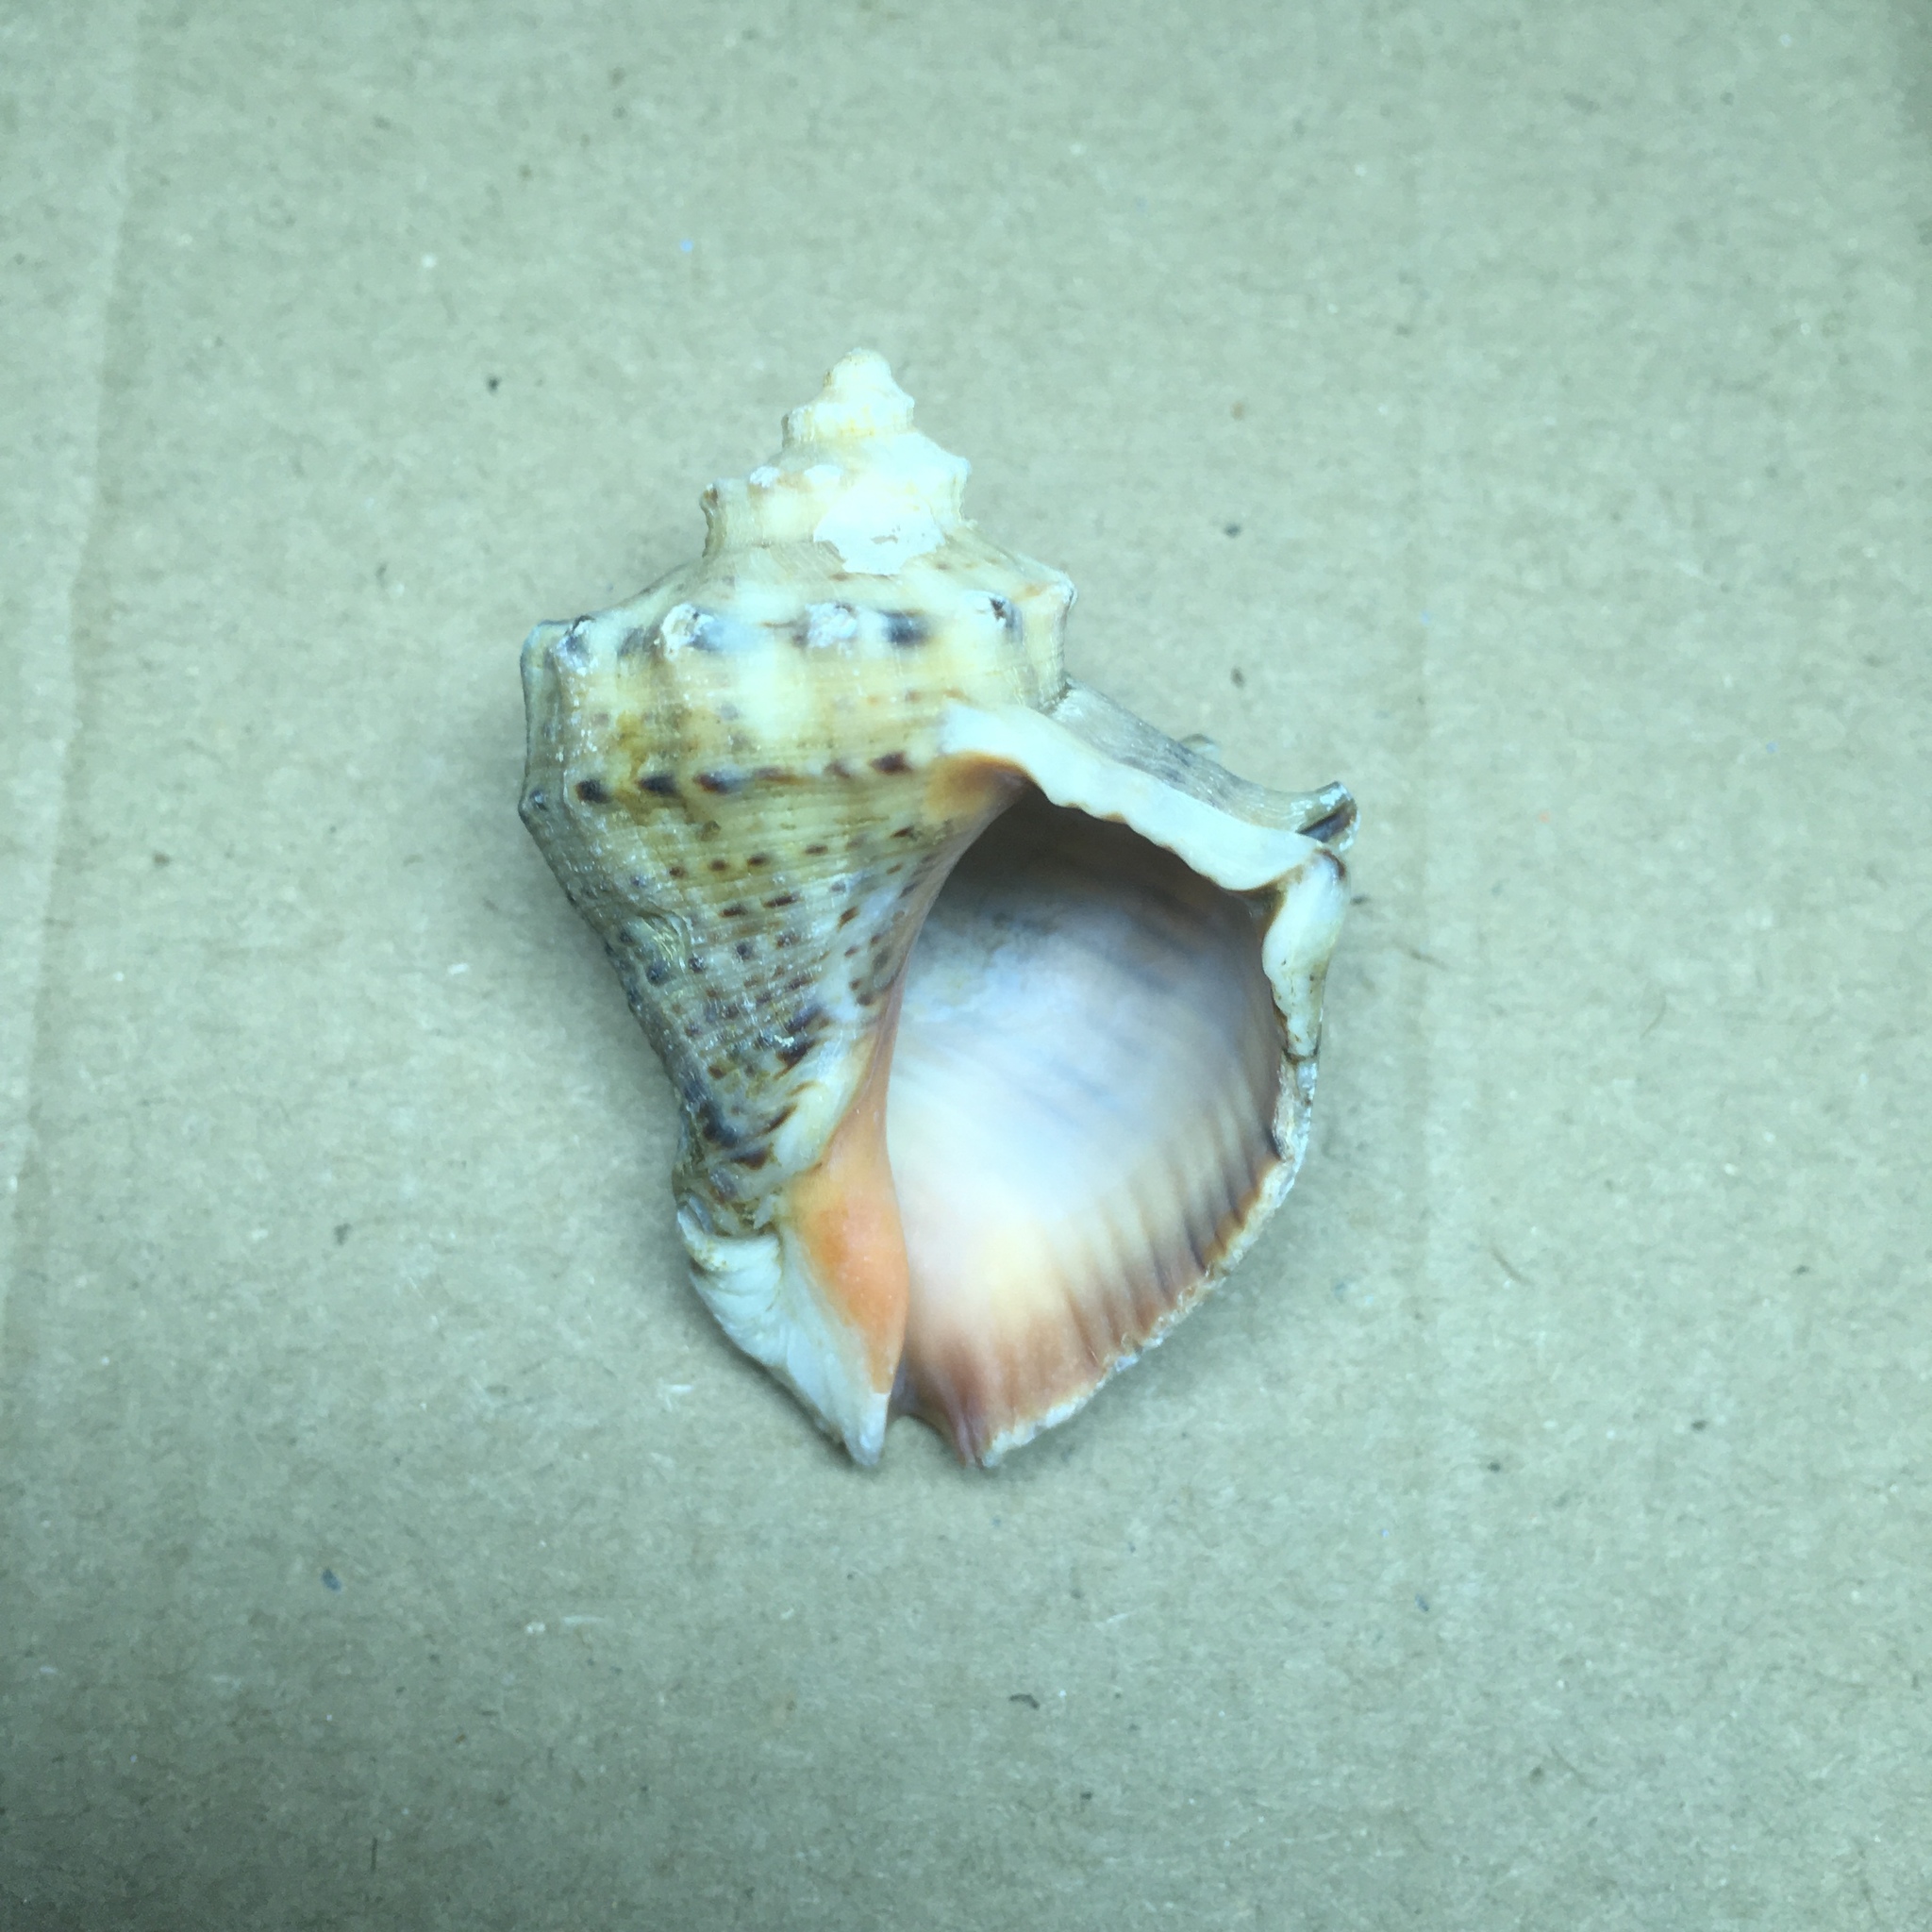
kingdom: Animalia
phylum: Mollusca
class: Gastropoda
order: Neogastropoda
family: Muricidae
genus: Rapana
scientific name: Rapana venosa
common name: Veined rapa whelk
